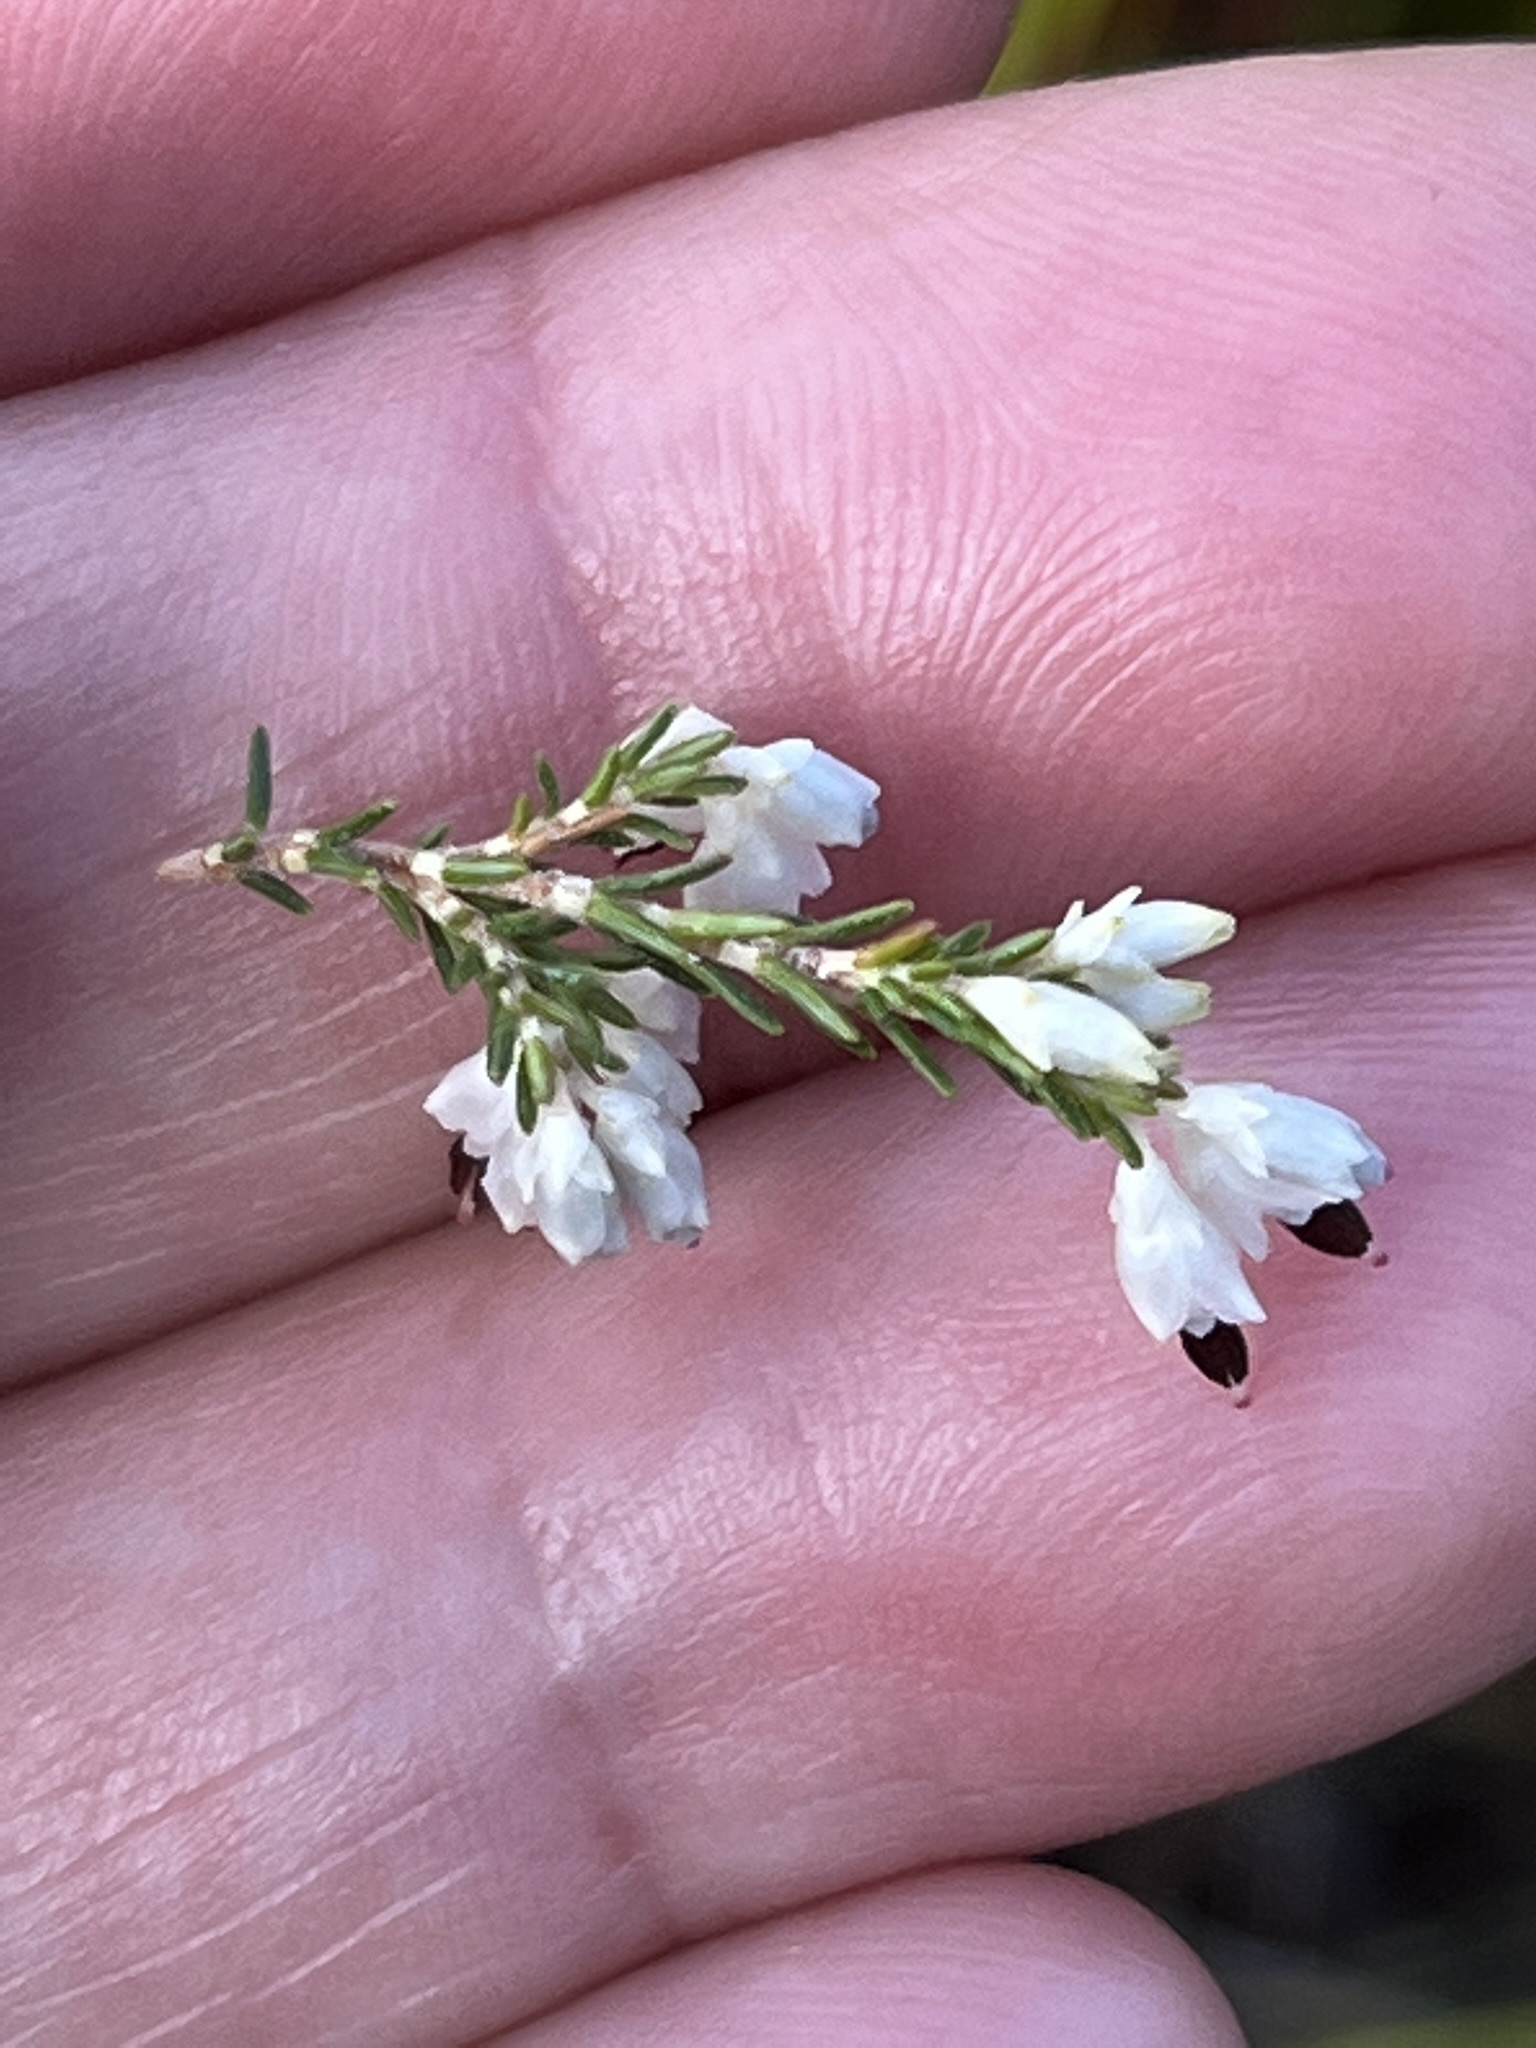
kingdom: Plantae
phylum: Tracheophyta
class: Magnoliopsida
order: Ericales
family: Ericaceae
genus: Erica
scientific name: Erica imbricata
